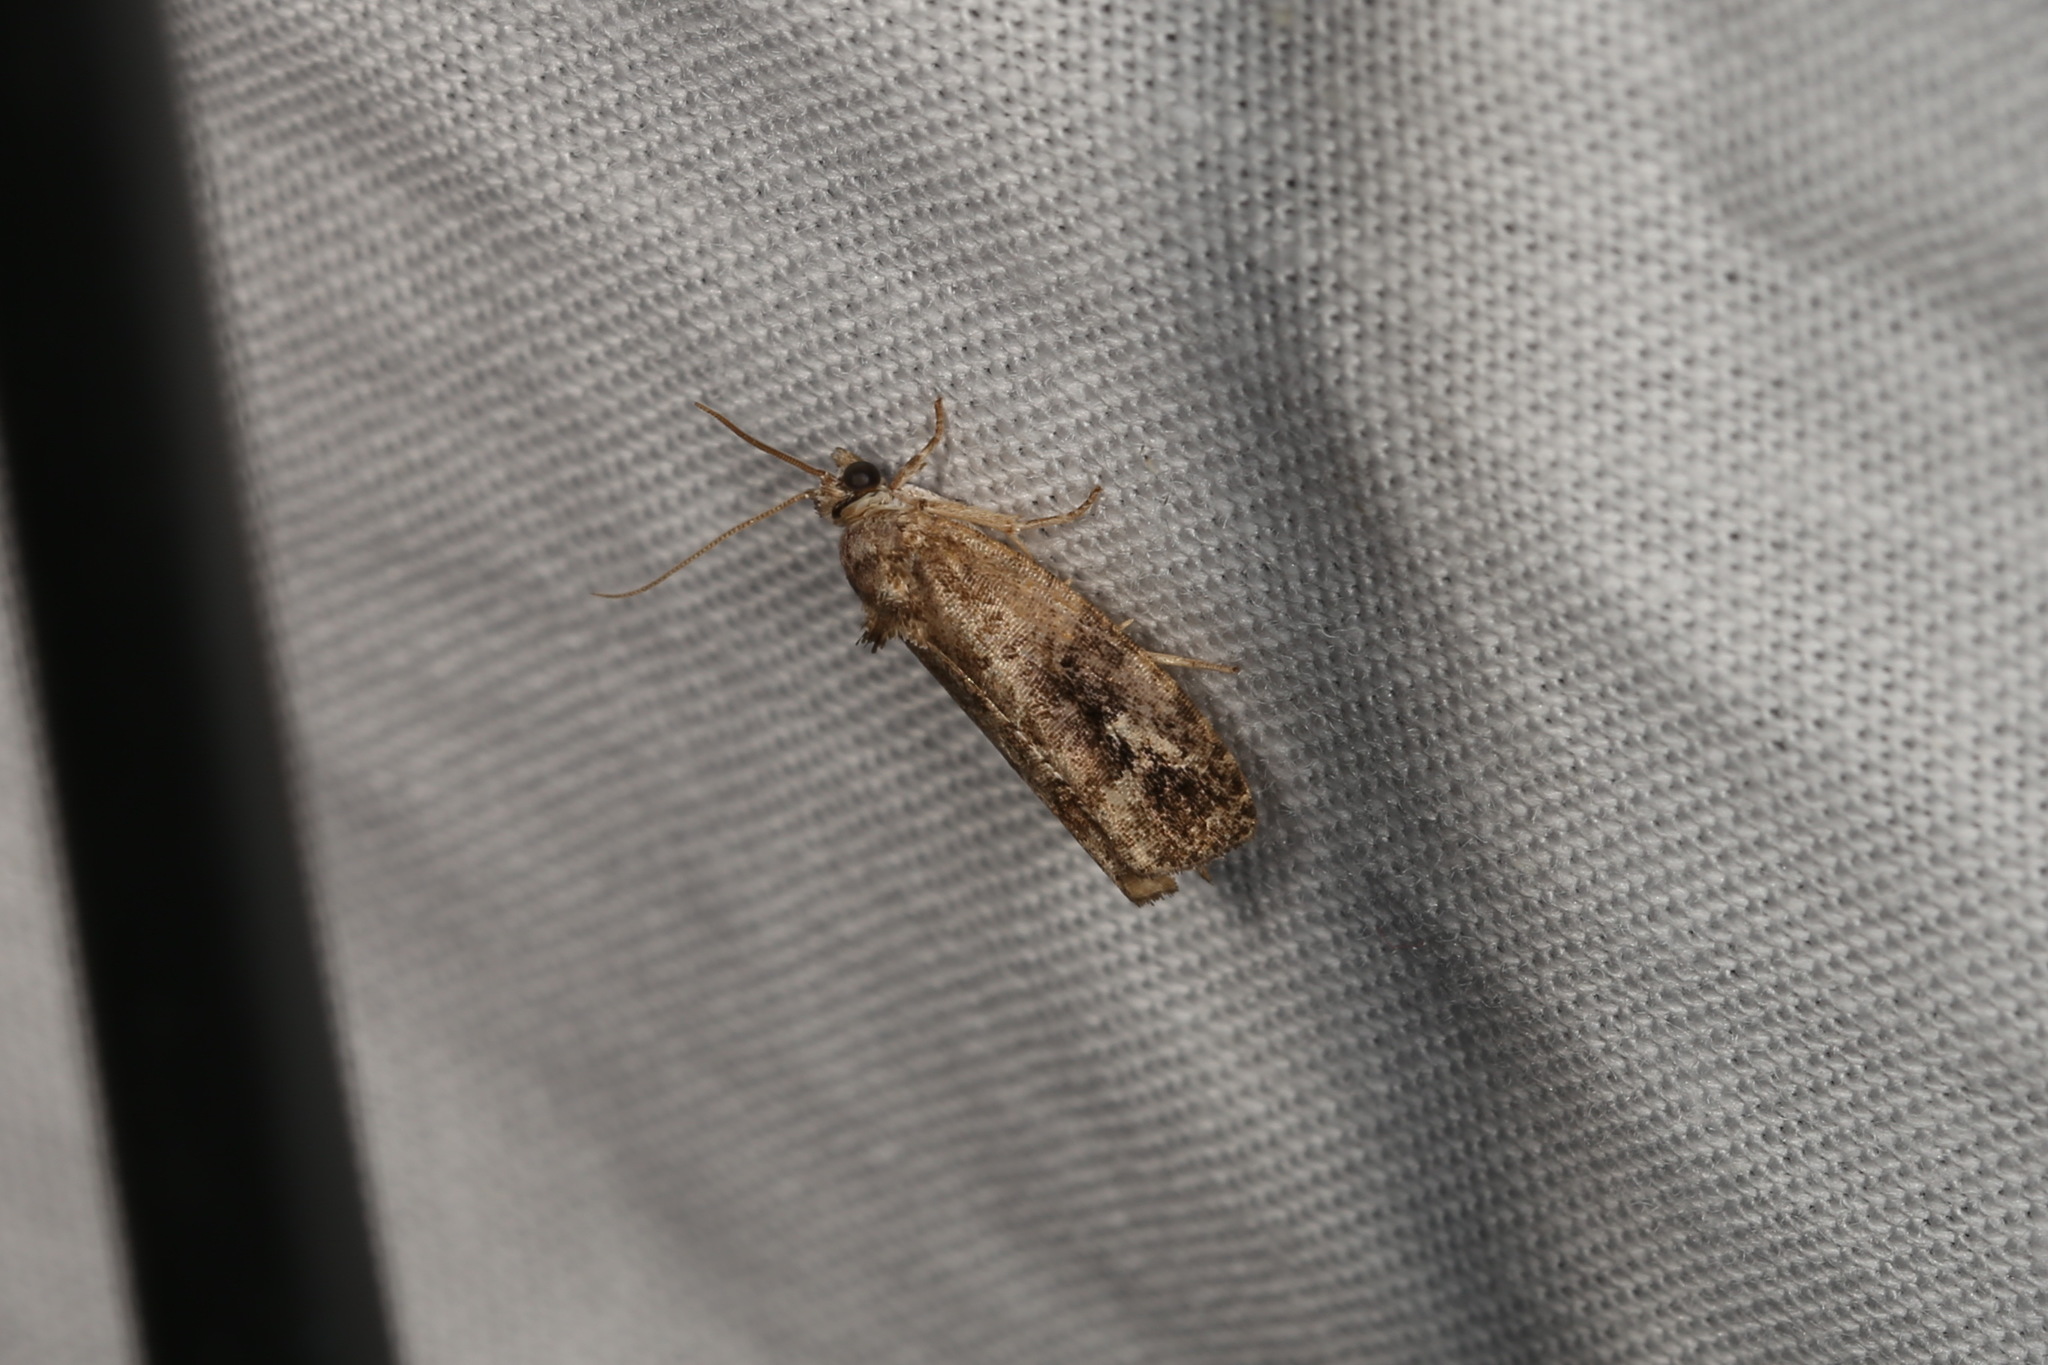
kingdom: Animalia
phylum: Arthropoda
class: Insecta
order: Lepidoptera
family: Tortricidae
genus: Eudemis
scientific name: Eudemis porphyrana
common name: Apple marble
